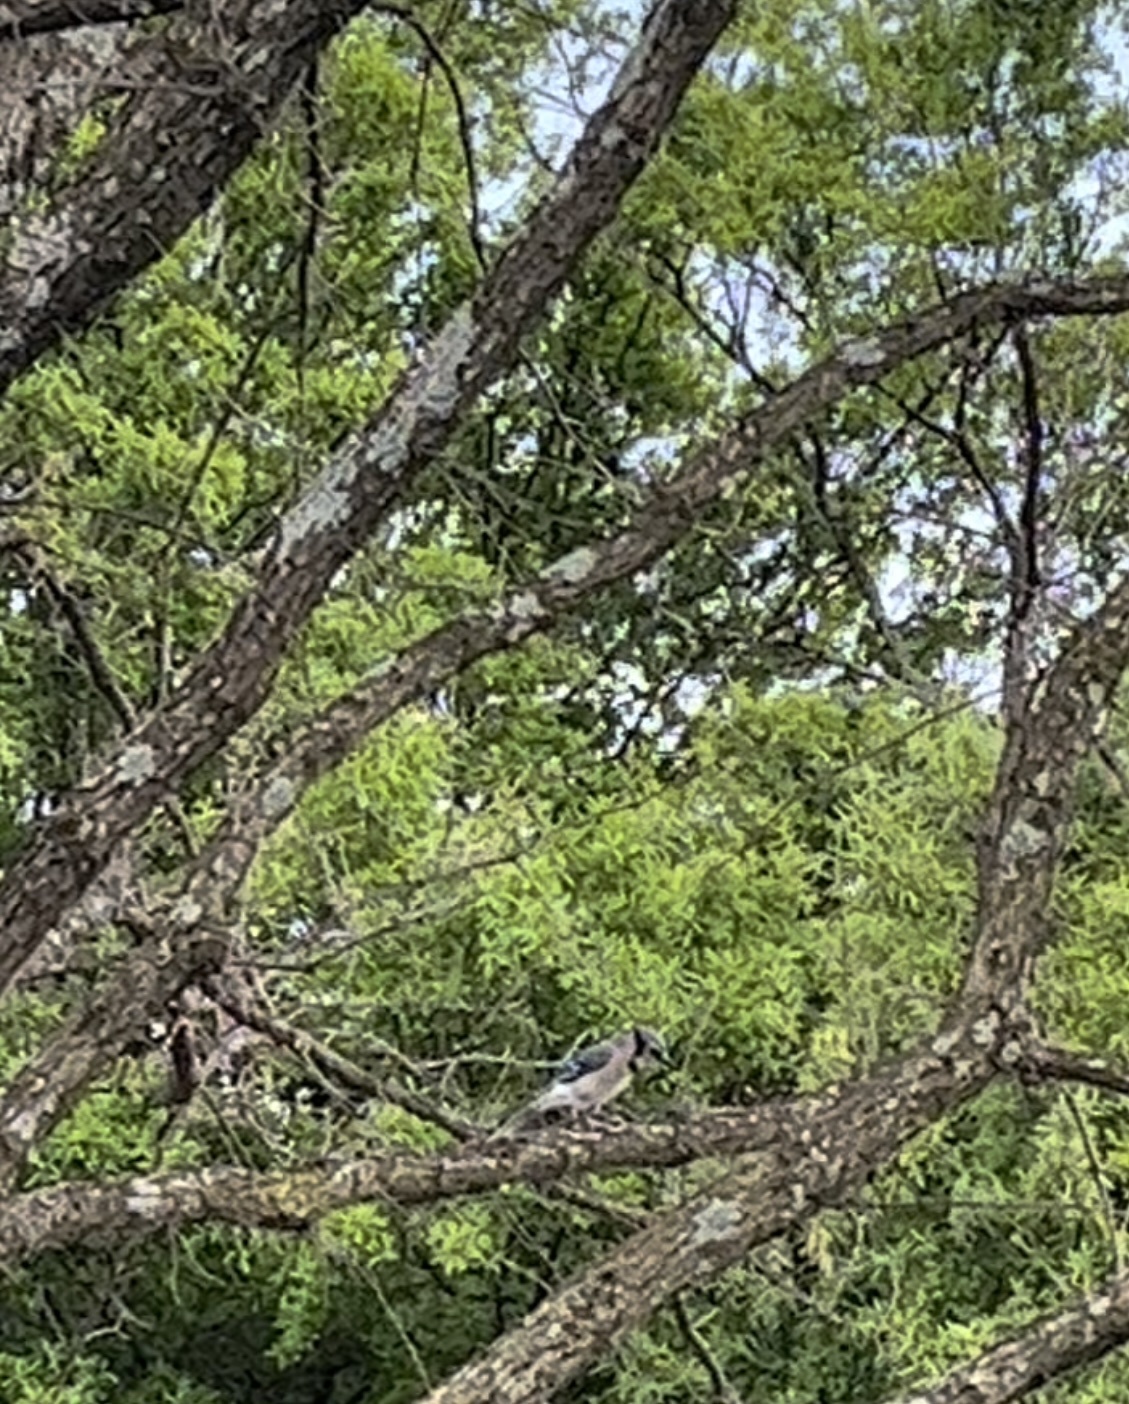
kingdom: Animalia
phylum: Chordata
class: Aves
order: Passeriformes
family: Corvidae
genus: Cyanocitta
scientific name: Cyanocitta cristata
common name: Blue jay
